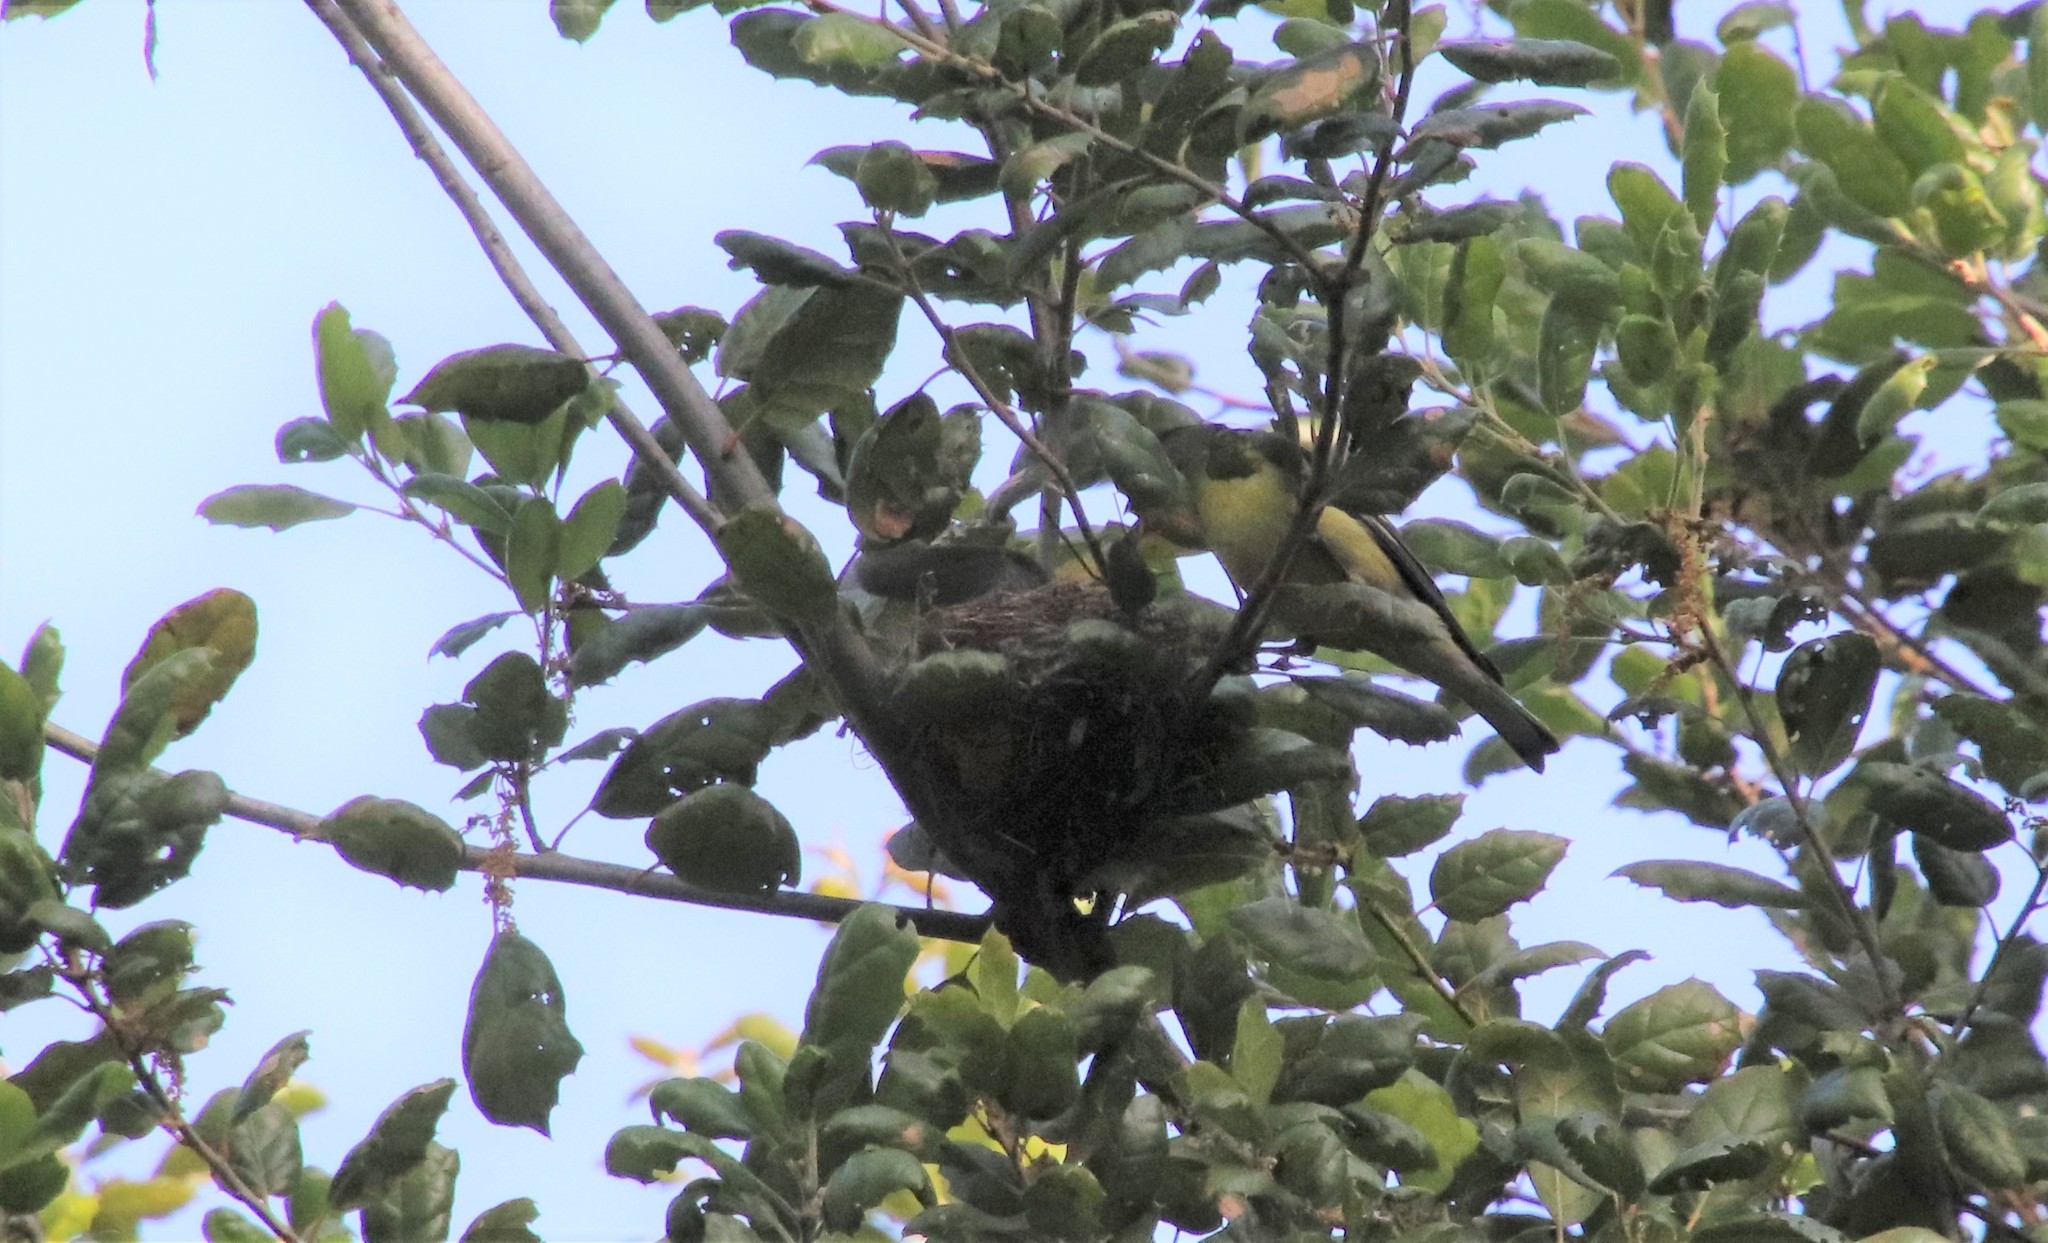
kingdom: Animalia
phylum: Chordata
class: Aves
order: Passeriformes
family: Fringillidae
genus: Spinus
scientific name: Spinus psaltria
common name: Lesser goldfinch
